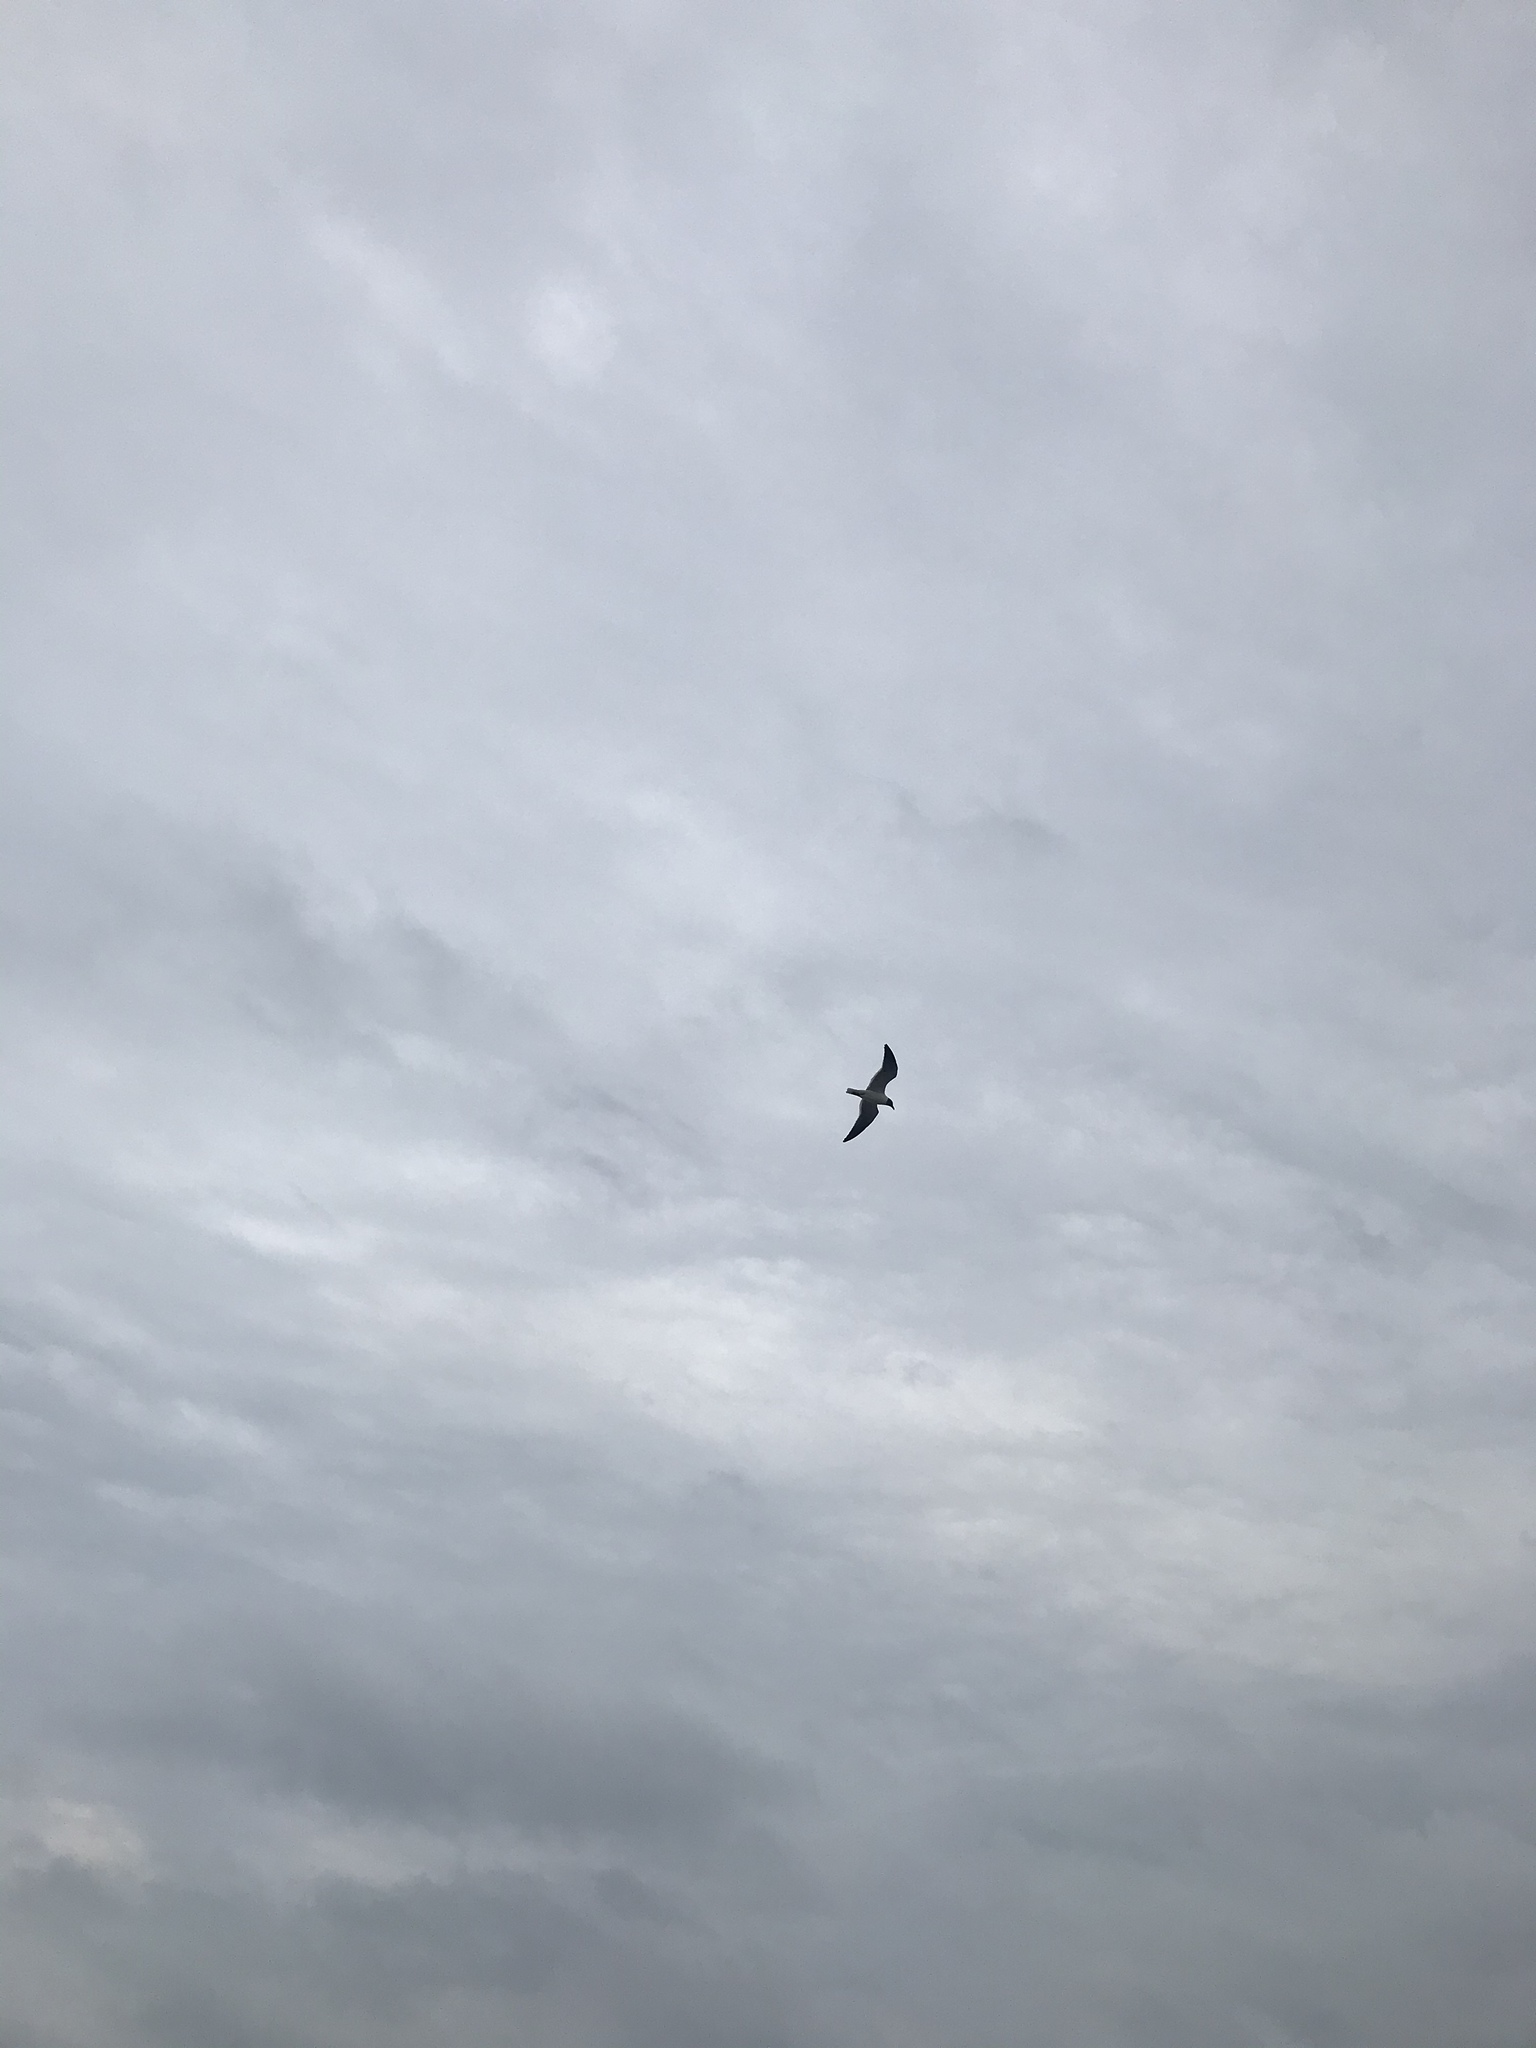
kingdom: Animalia
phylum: Chordata
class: Aves
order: Charadriiformes
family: Laridae
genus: Leucophaeus
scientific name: Leucophaeus atricilla
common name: Laughing gull
